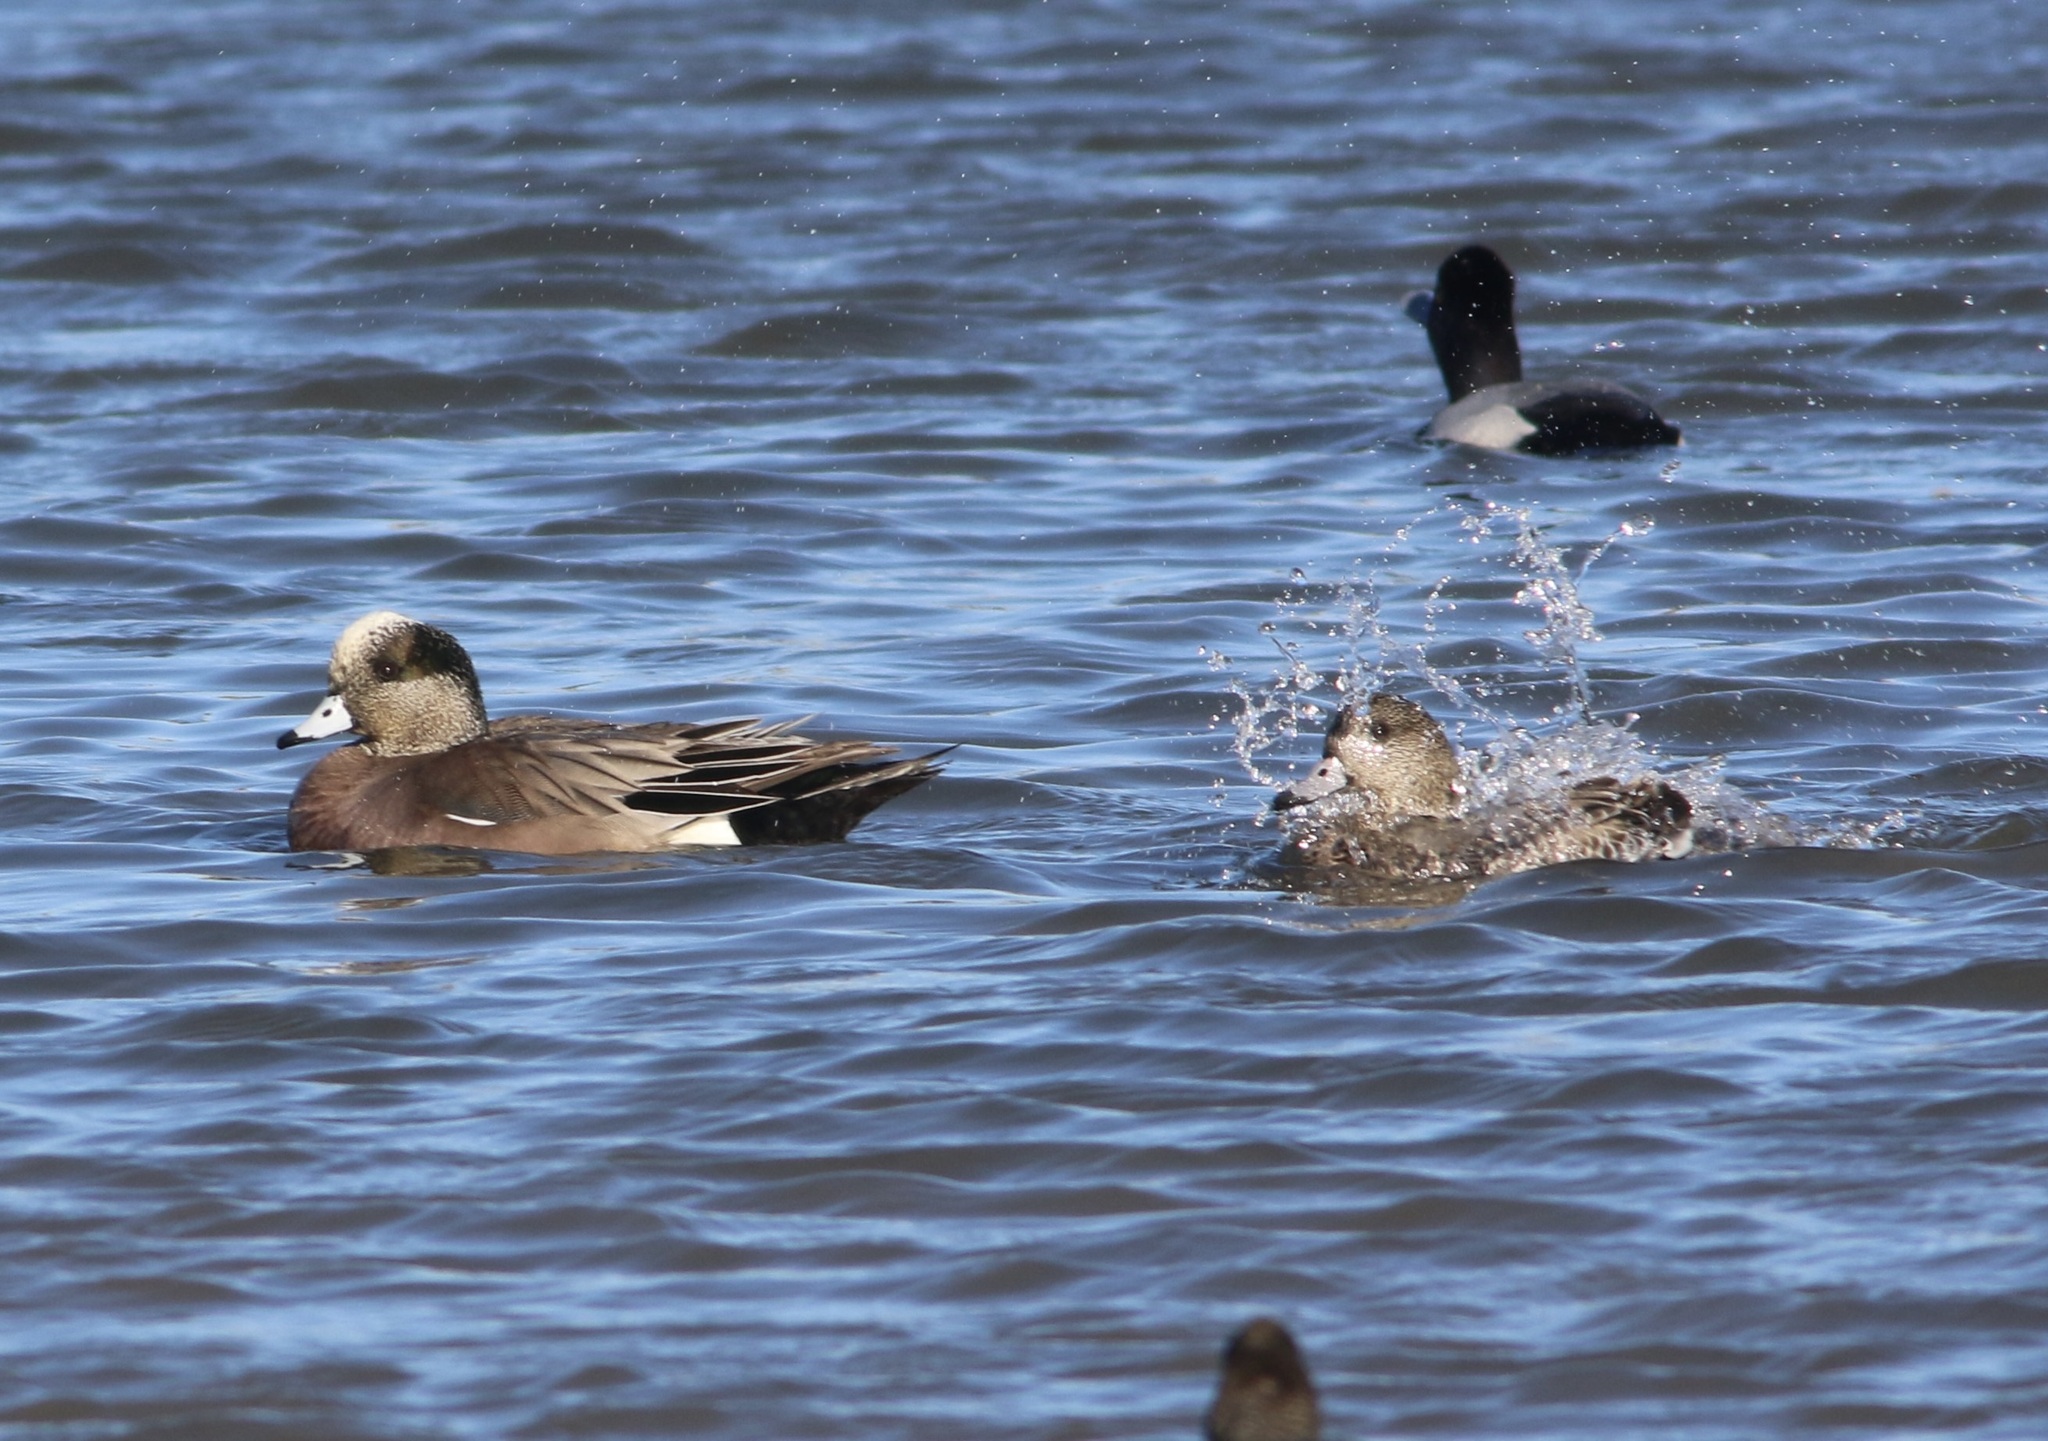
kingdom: Animalia
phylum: Chordata
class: Aves
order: Anseriformes
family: Anatidae
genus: Mareca
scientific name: Mareca americana
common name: American wigeon
